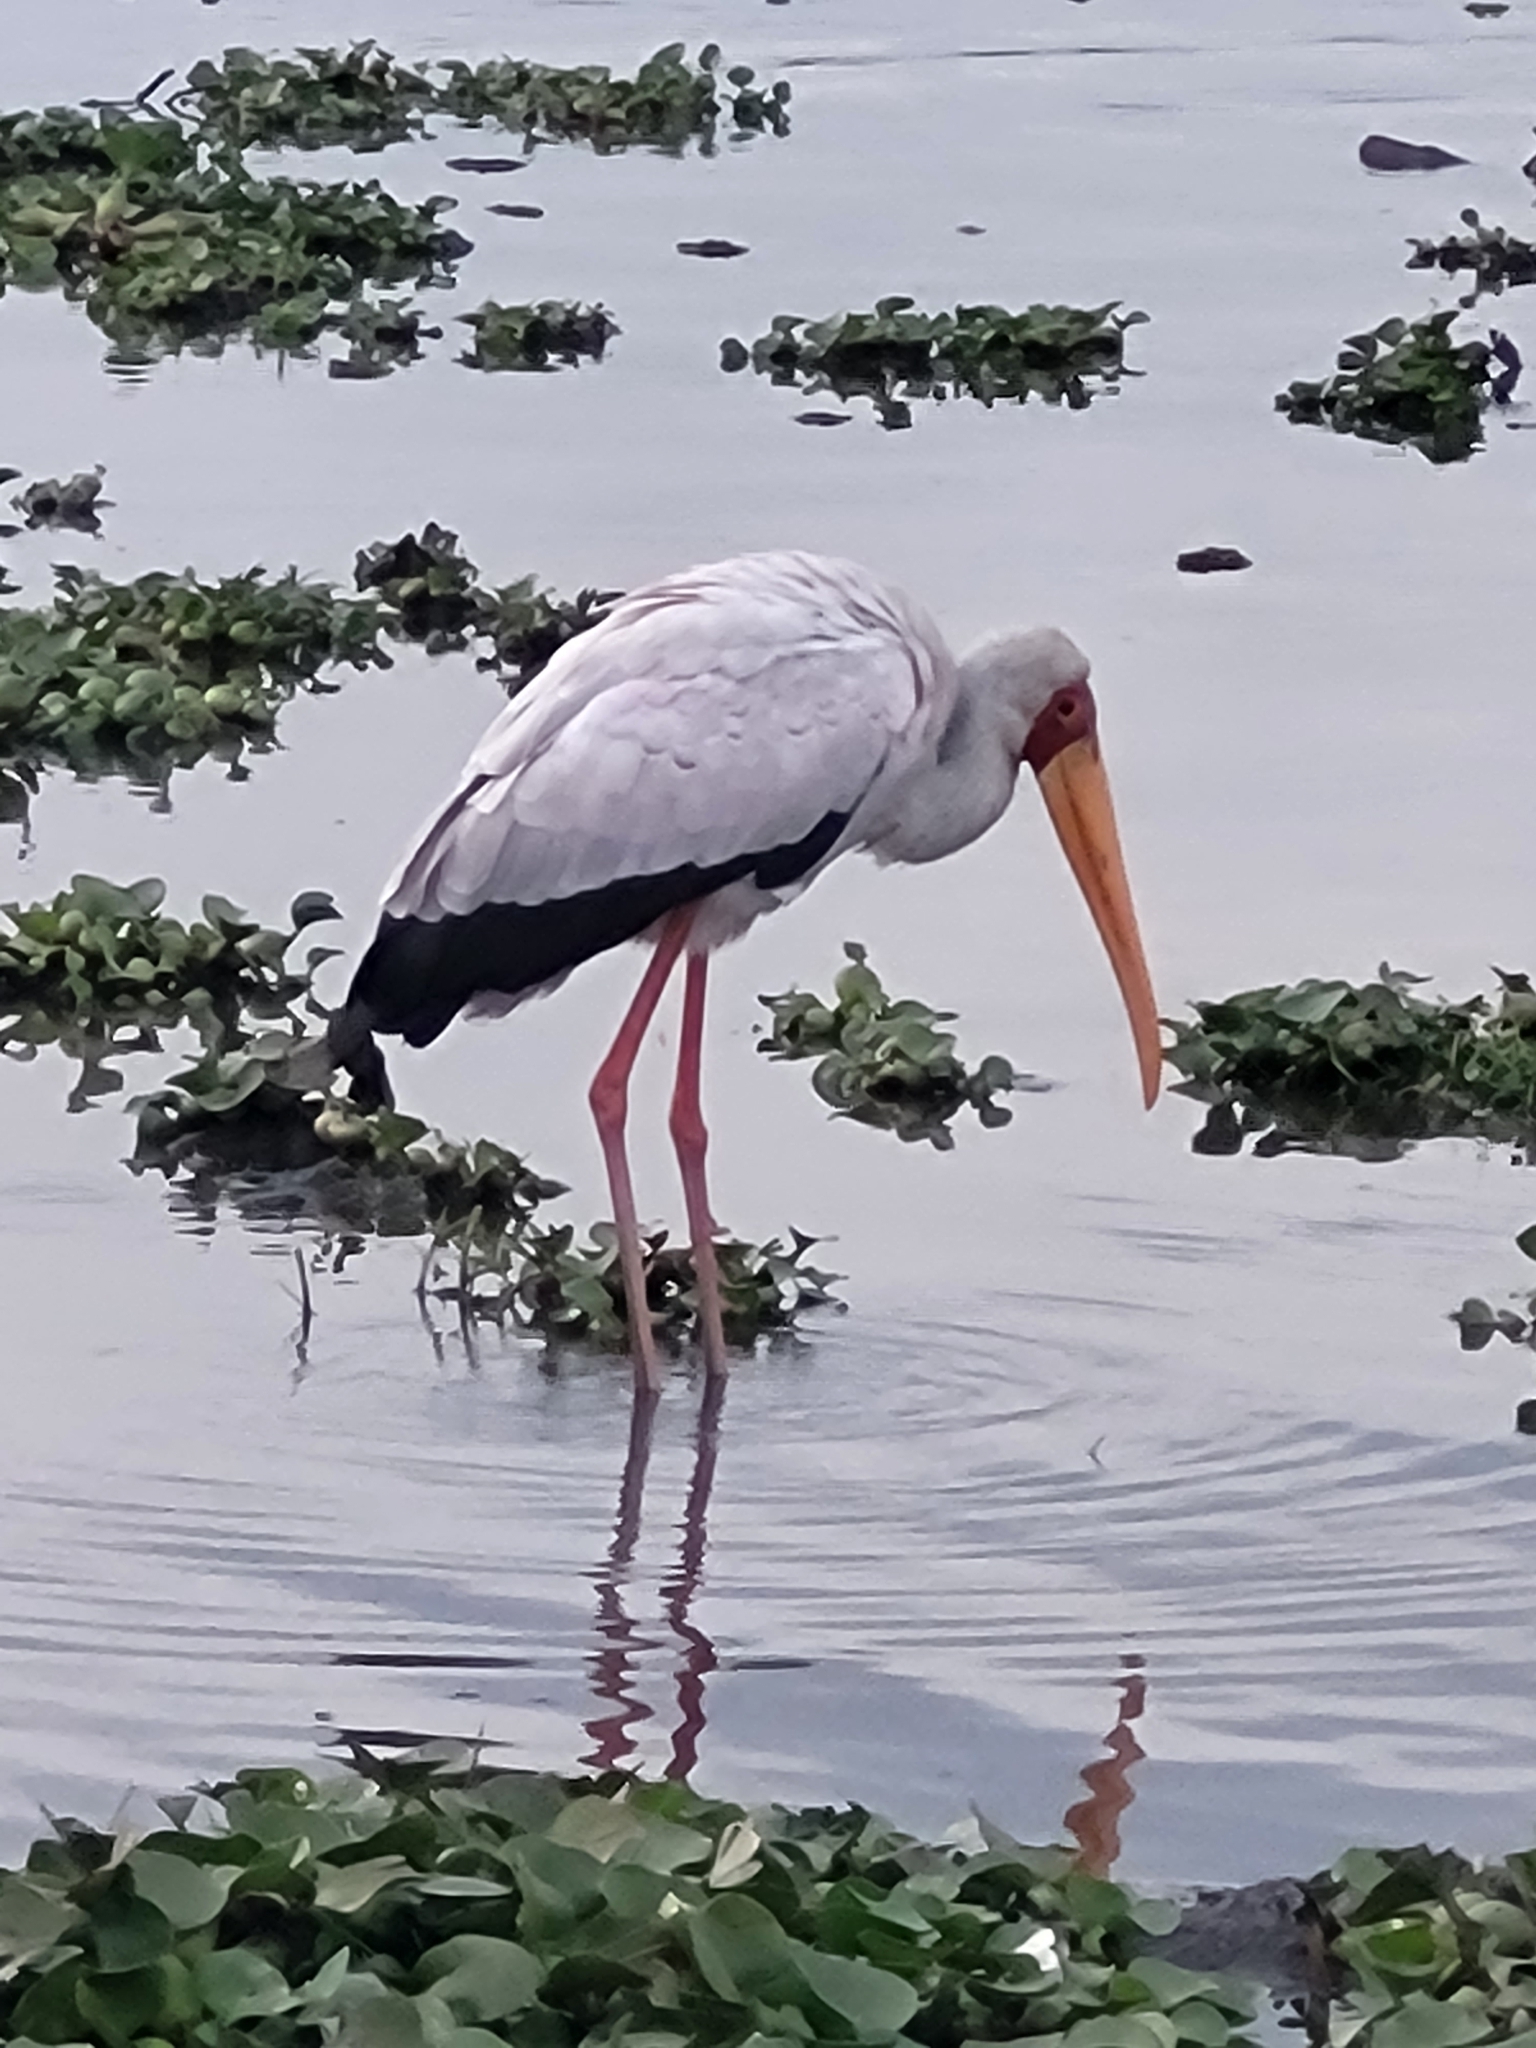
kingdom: Animalia
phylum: Chordata
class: Aves
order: Ciconiiformes
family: Ciconiidae
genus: Mycteria
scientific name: Mycteria ibis
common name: Yellow-billed stork
